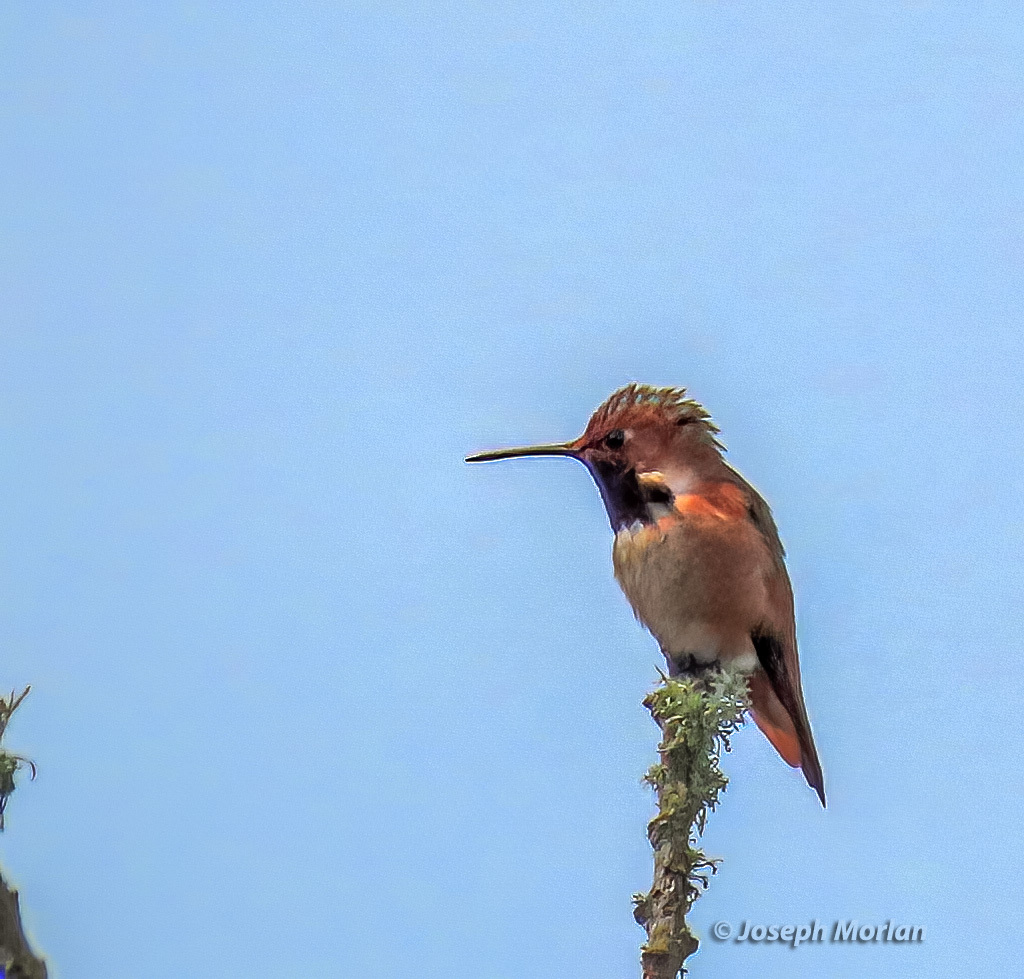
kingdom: Animalia
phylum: Chordata
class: Aves
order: Apodiformes
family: Trochilidae
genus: Selasphorus
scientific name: Selasphorus sasin
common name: Allen's hummingbird
